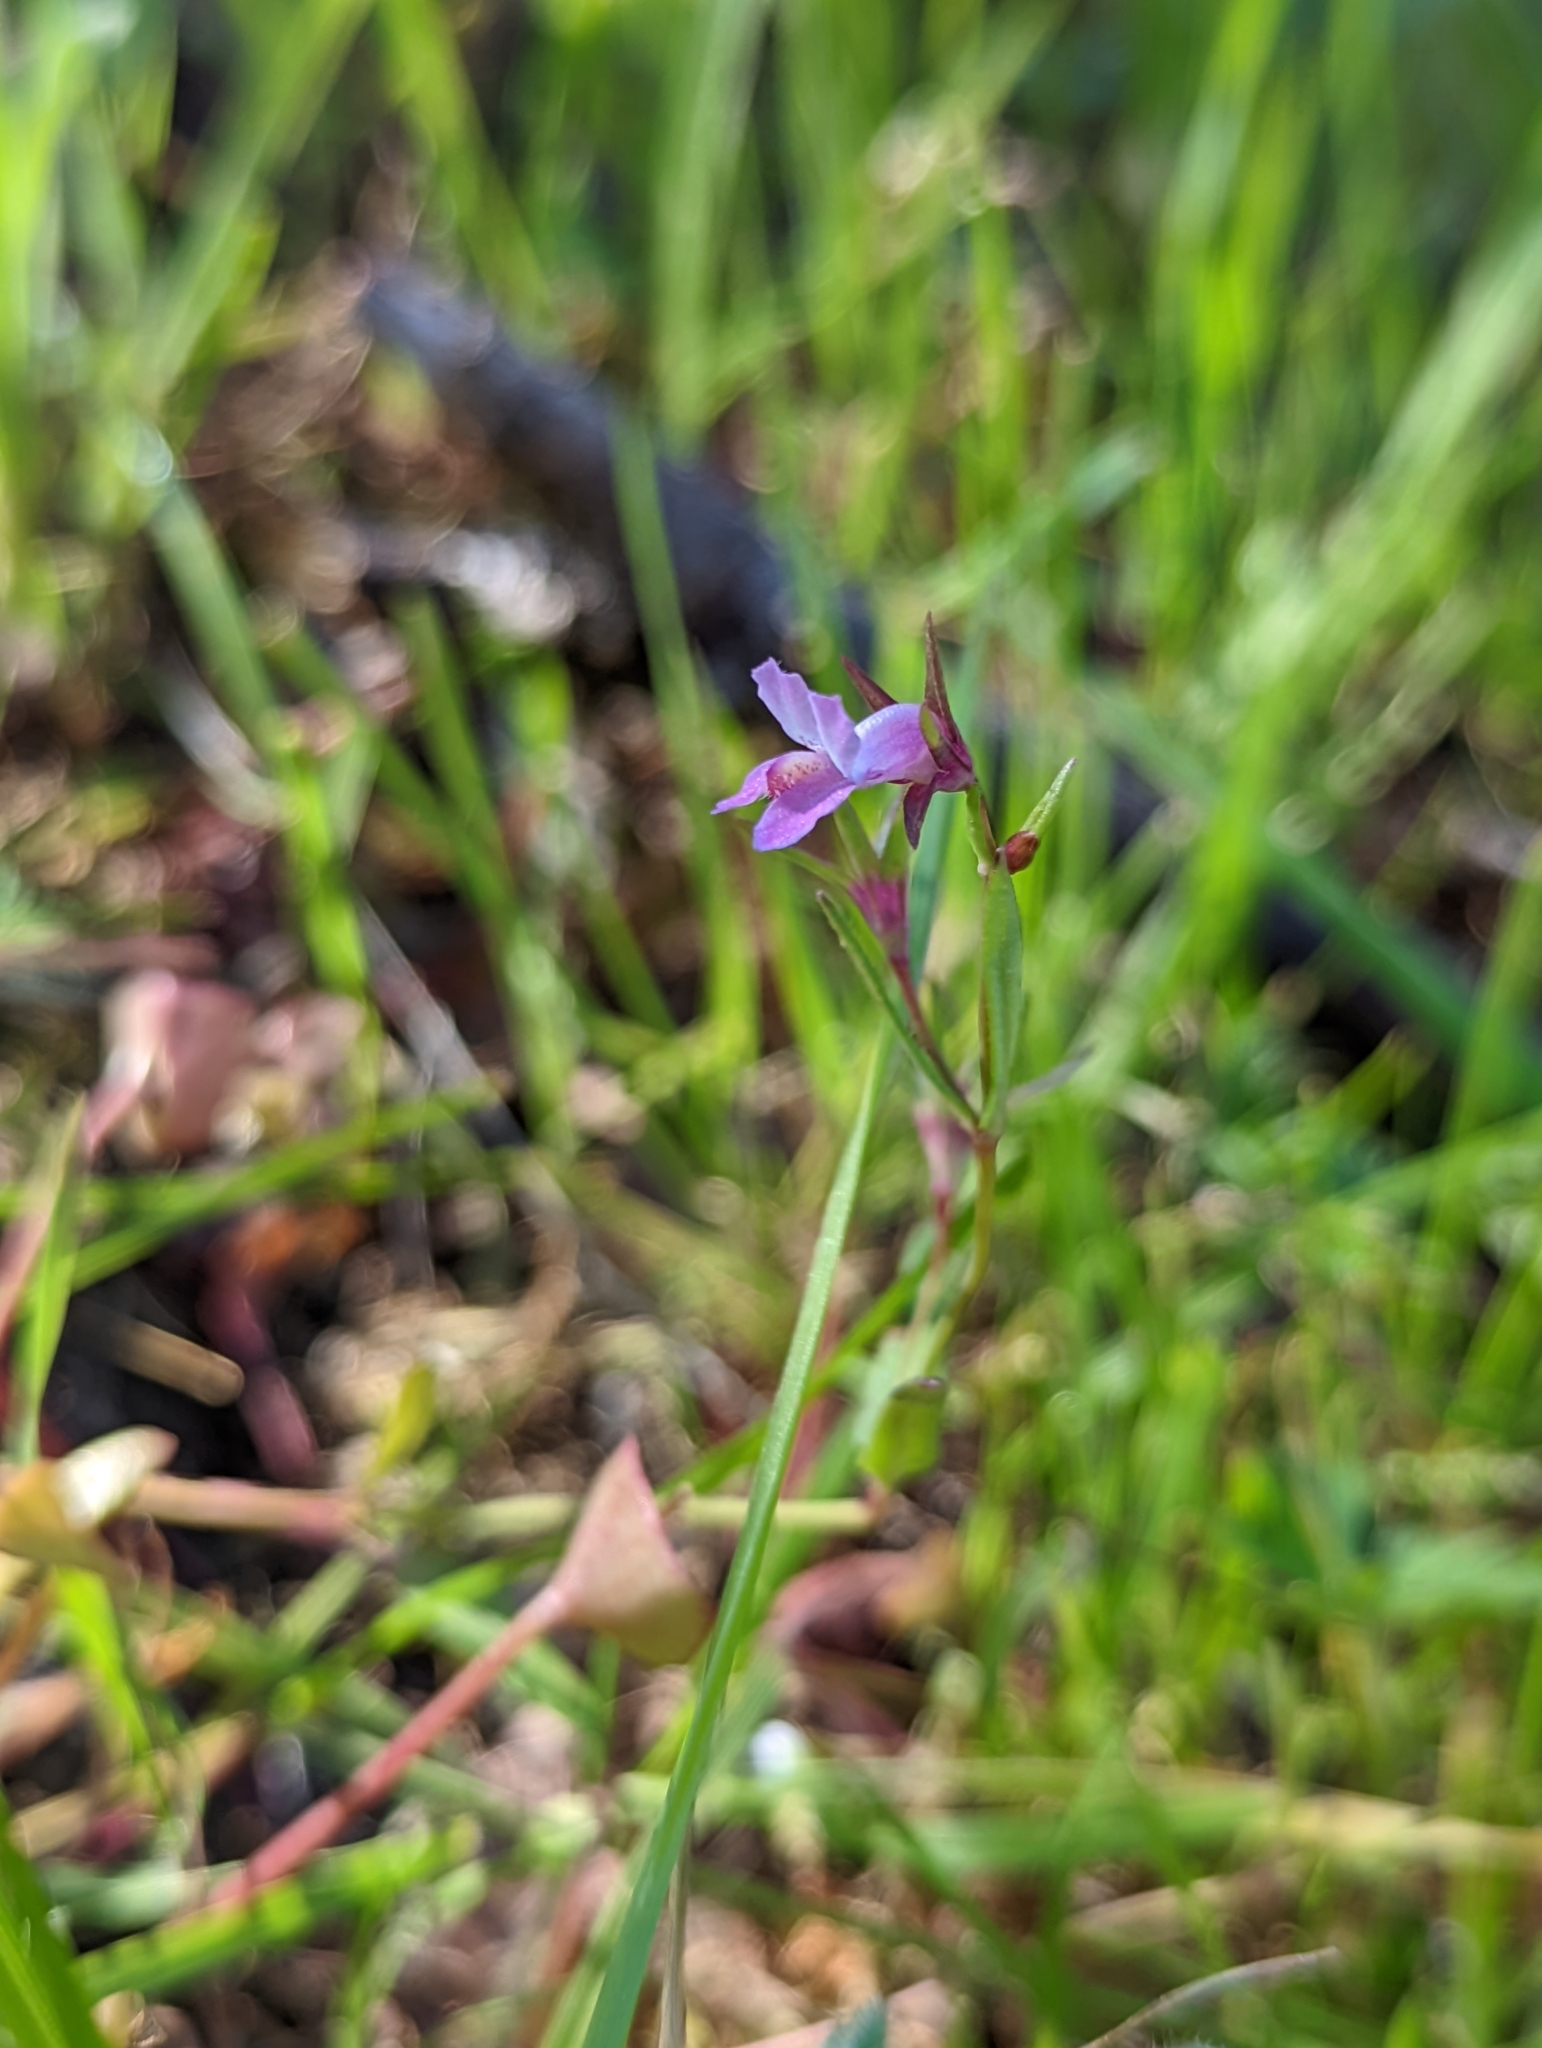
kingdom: Plantae
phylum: Tracheophyta
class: Magnoliopsida
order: Lamiales
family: Plantaginaceae
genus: Collinsia
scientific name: Collinsia sparsiflora
